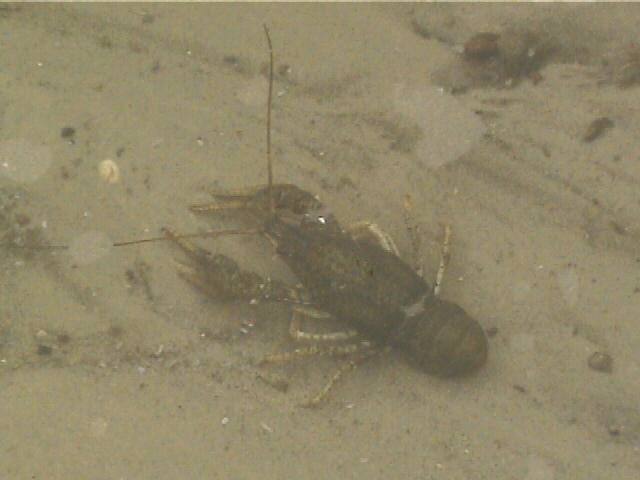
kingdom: Animalia
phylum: Arthropoda
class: Malacostraca
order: Decapoda
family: Astacidae
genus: Pontastacus
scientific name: Pontastacus leptodactylus
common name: Danube crayfish
